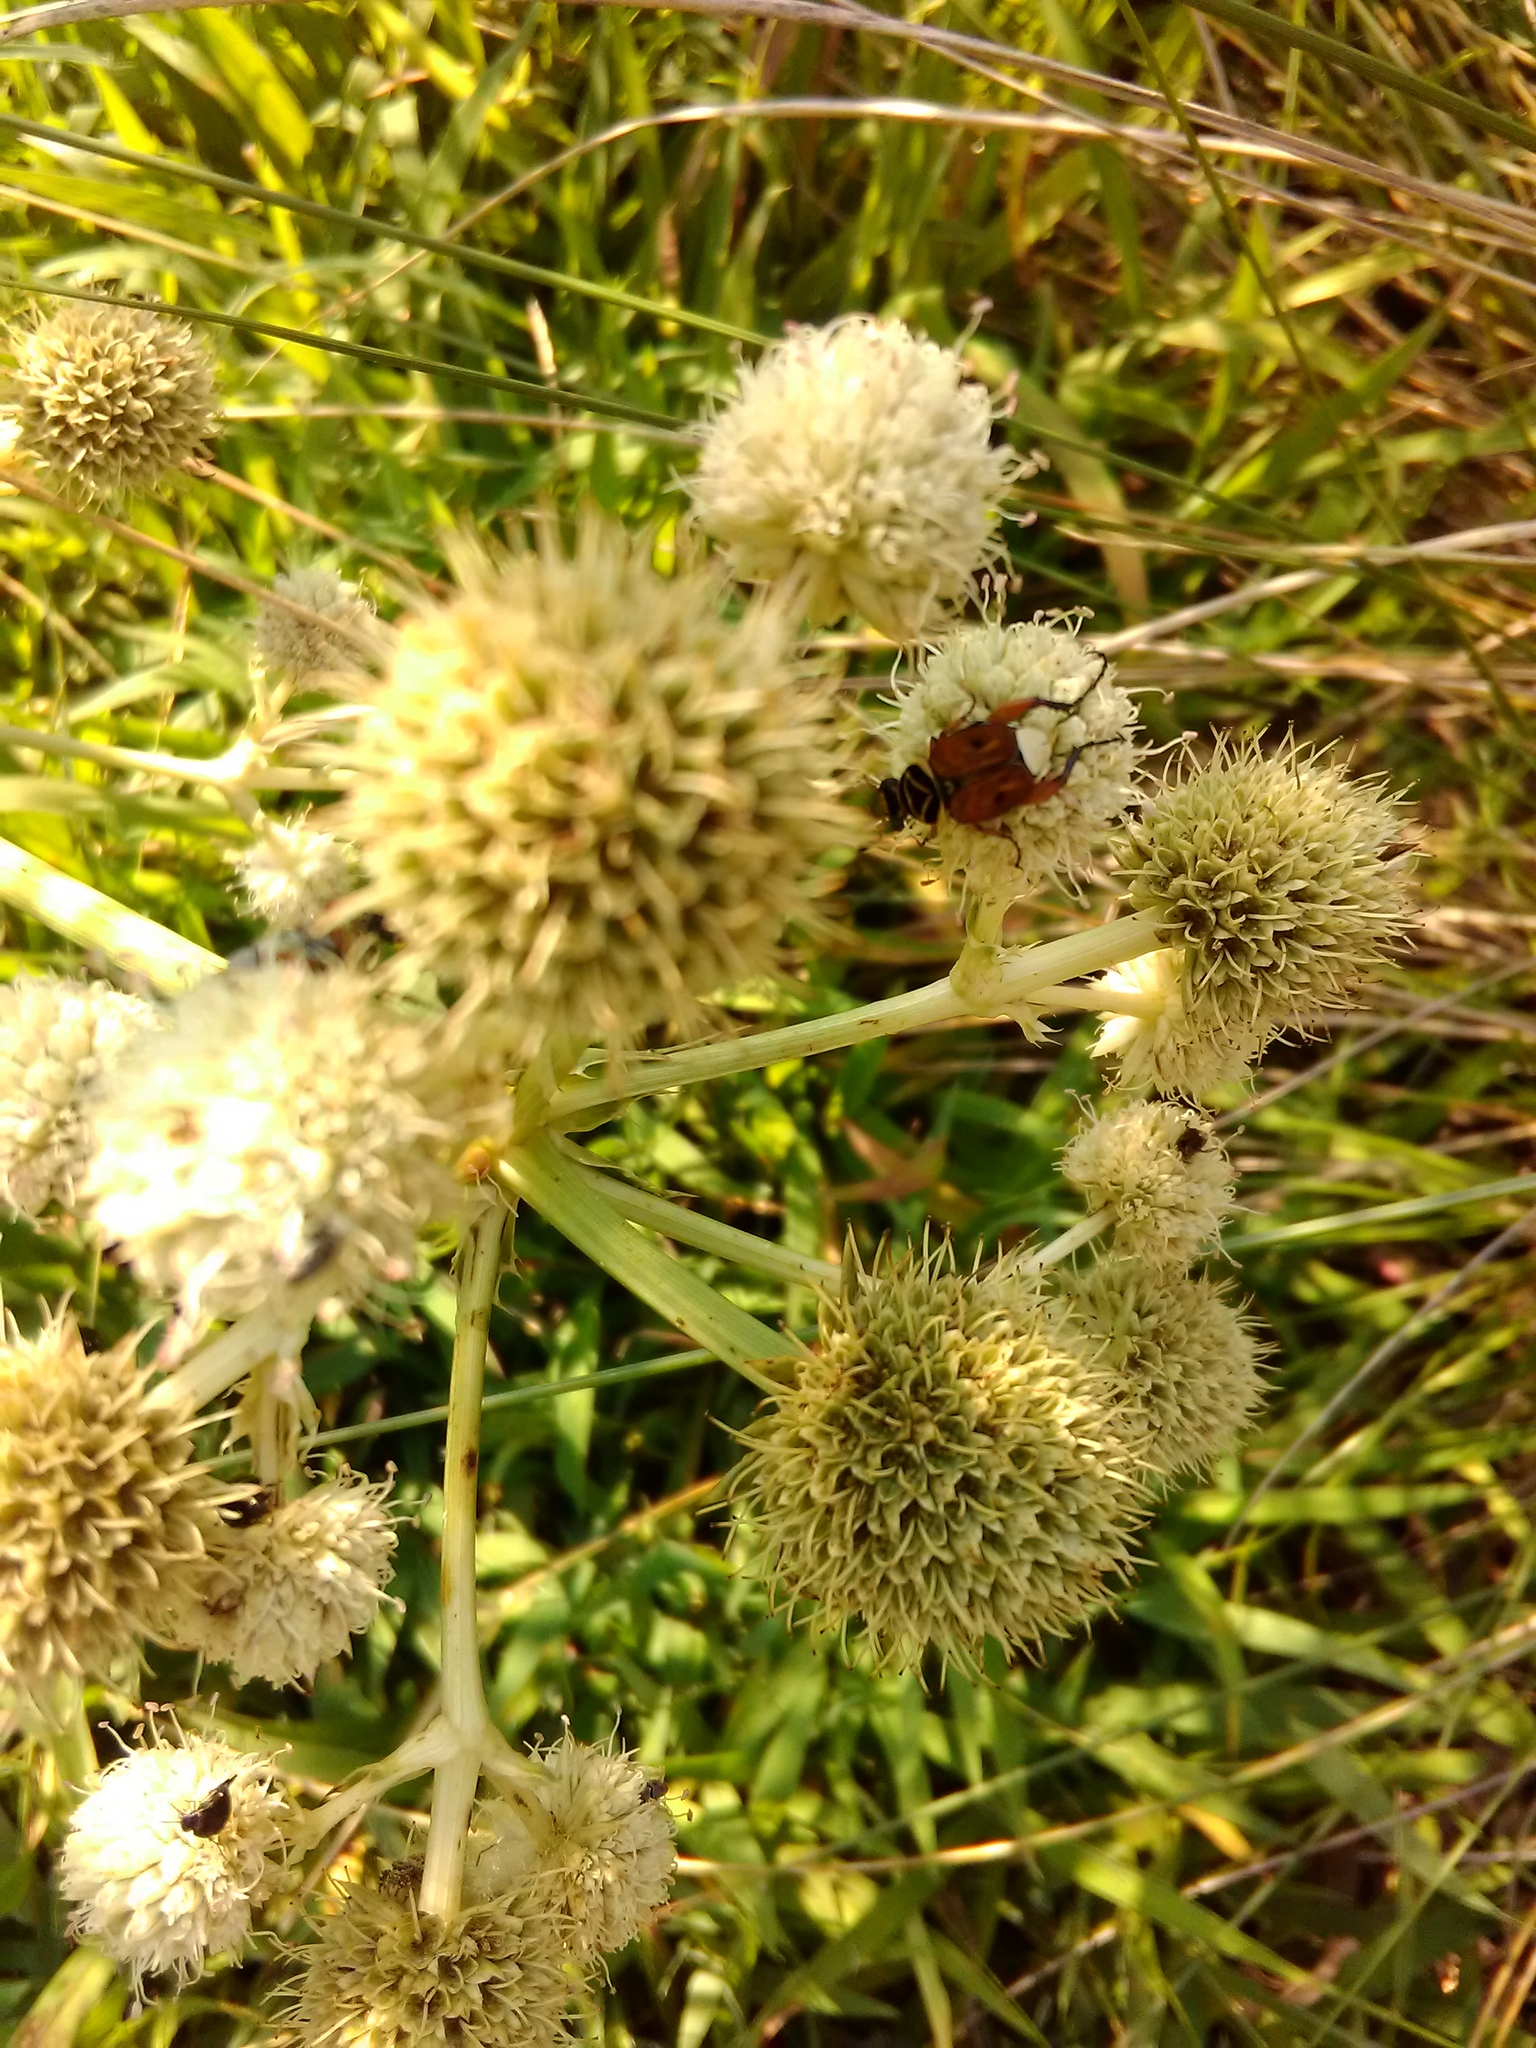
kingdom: Animalia
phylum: Arthropoda
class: Insecta
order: Coleoptera
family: Scarabaeidae
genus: Trigonopeltastes
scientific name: Trigonopeltastes delta
